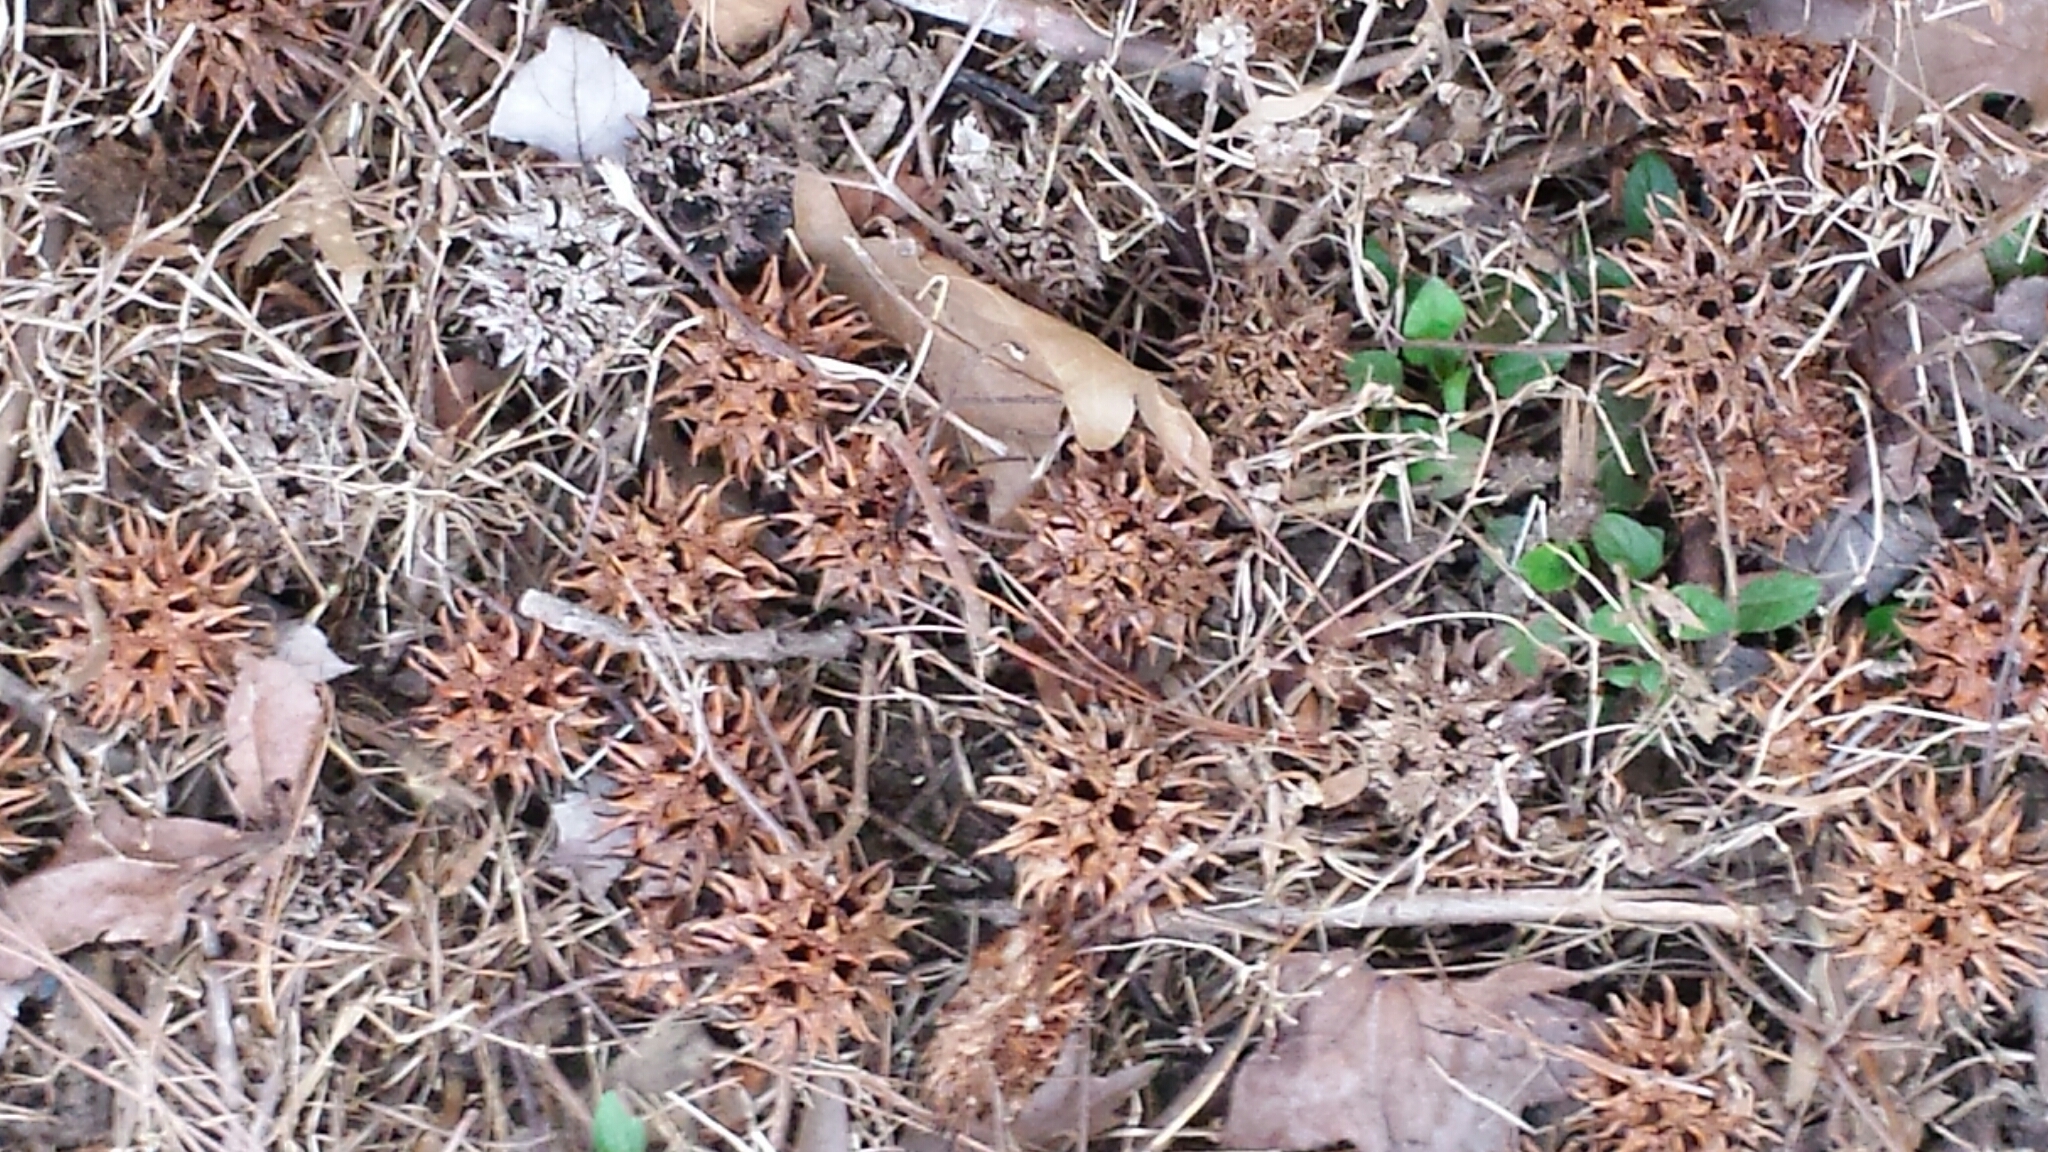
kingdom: Plantae
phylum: Tracheophyta
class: Magnoliopsida
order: Saxifragales
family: Altingiaceae
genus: Liquidambar
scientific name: Liquidambar styraciflua
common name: Sweet gum
